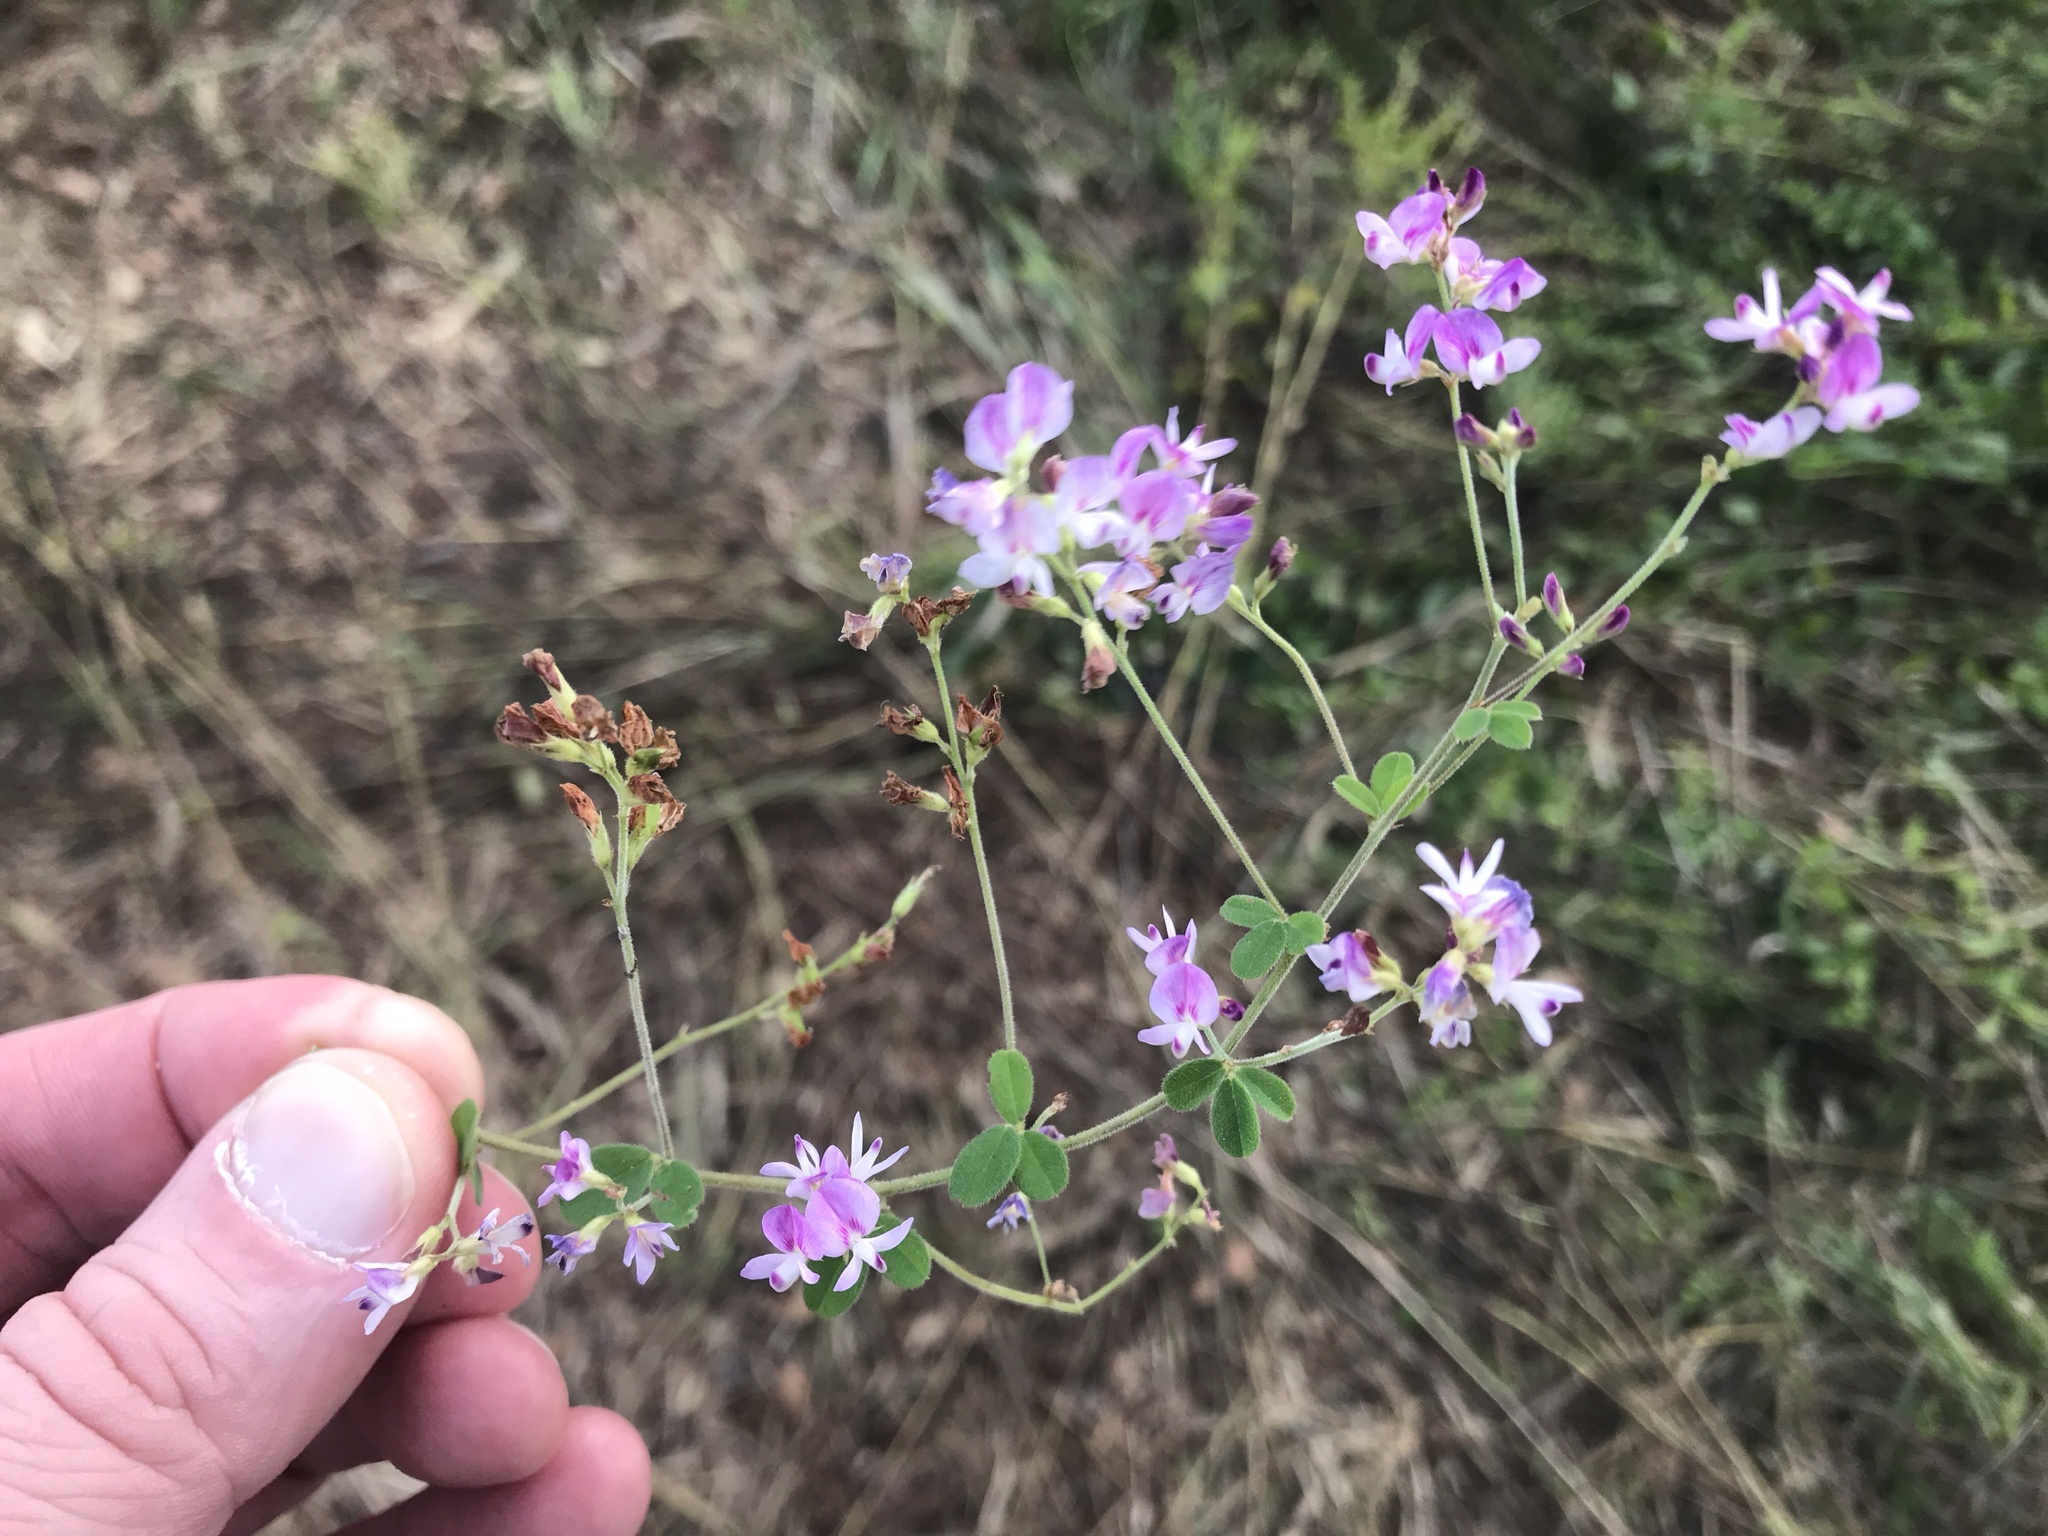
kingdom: Plantae
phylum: Tracheophyta
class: Magnoliopsida
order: Fabales
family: Fabaceae
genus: Lespedeza
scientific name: Lespedeza procumbens
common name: Downy trailing bush-clover
